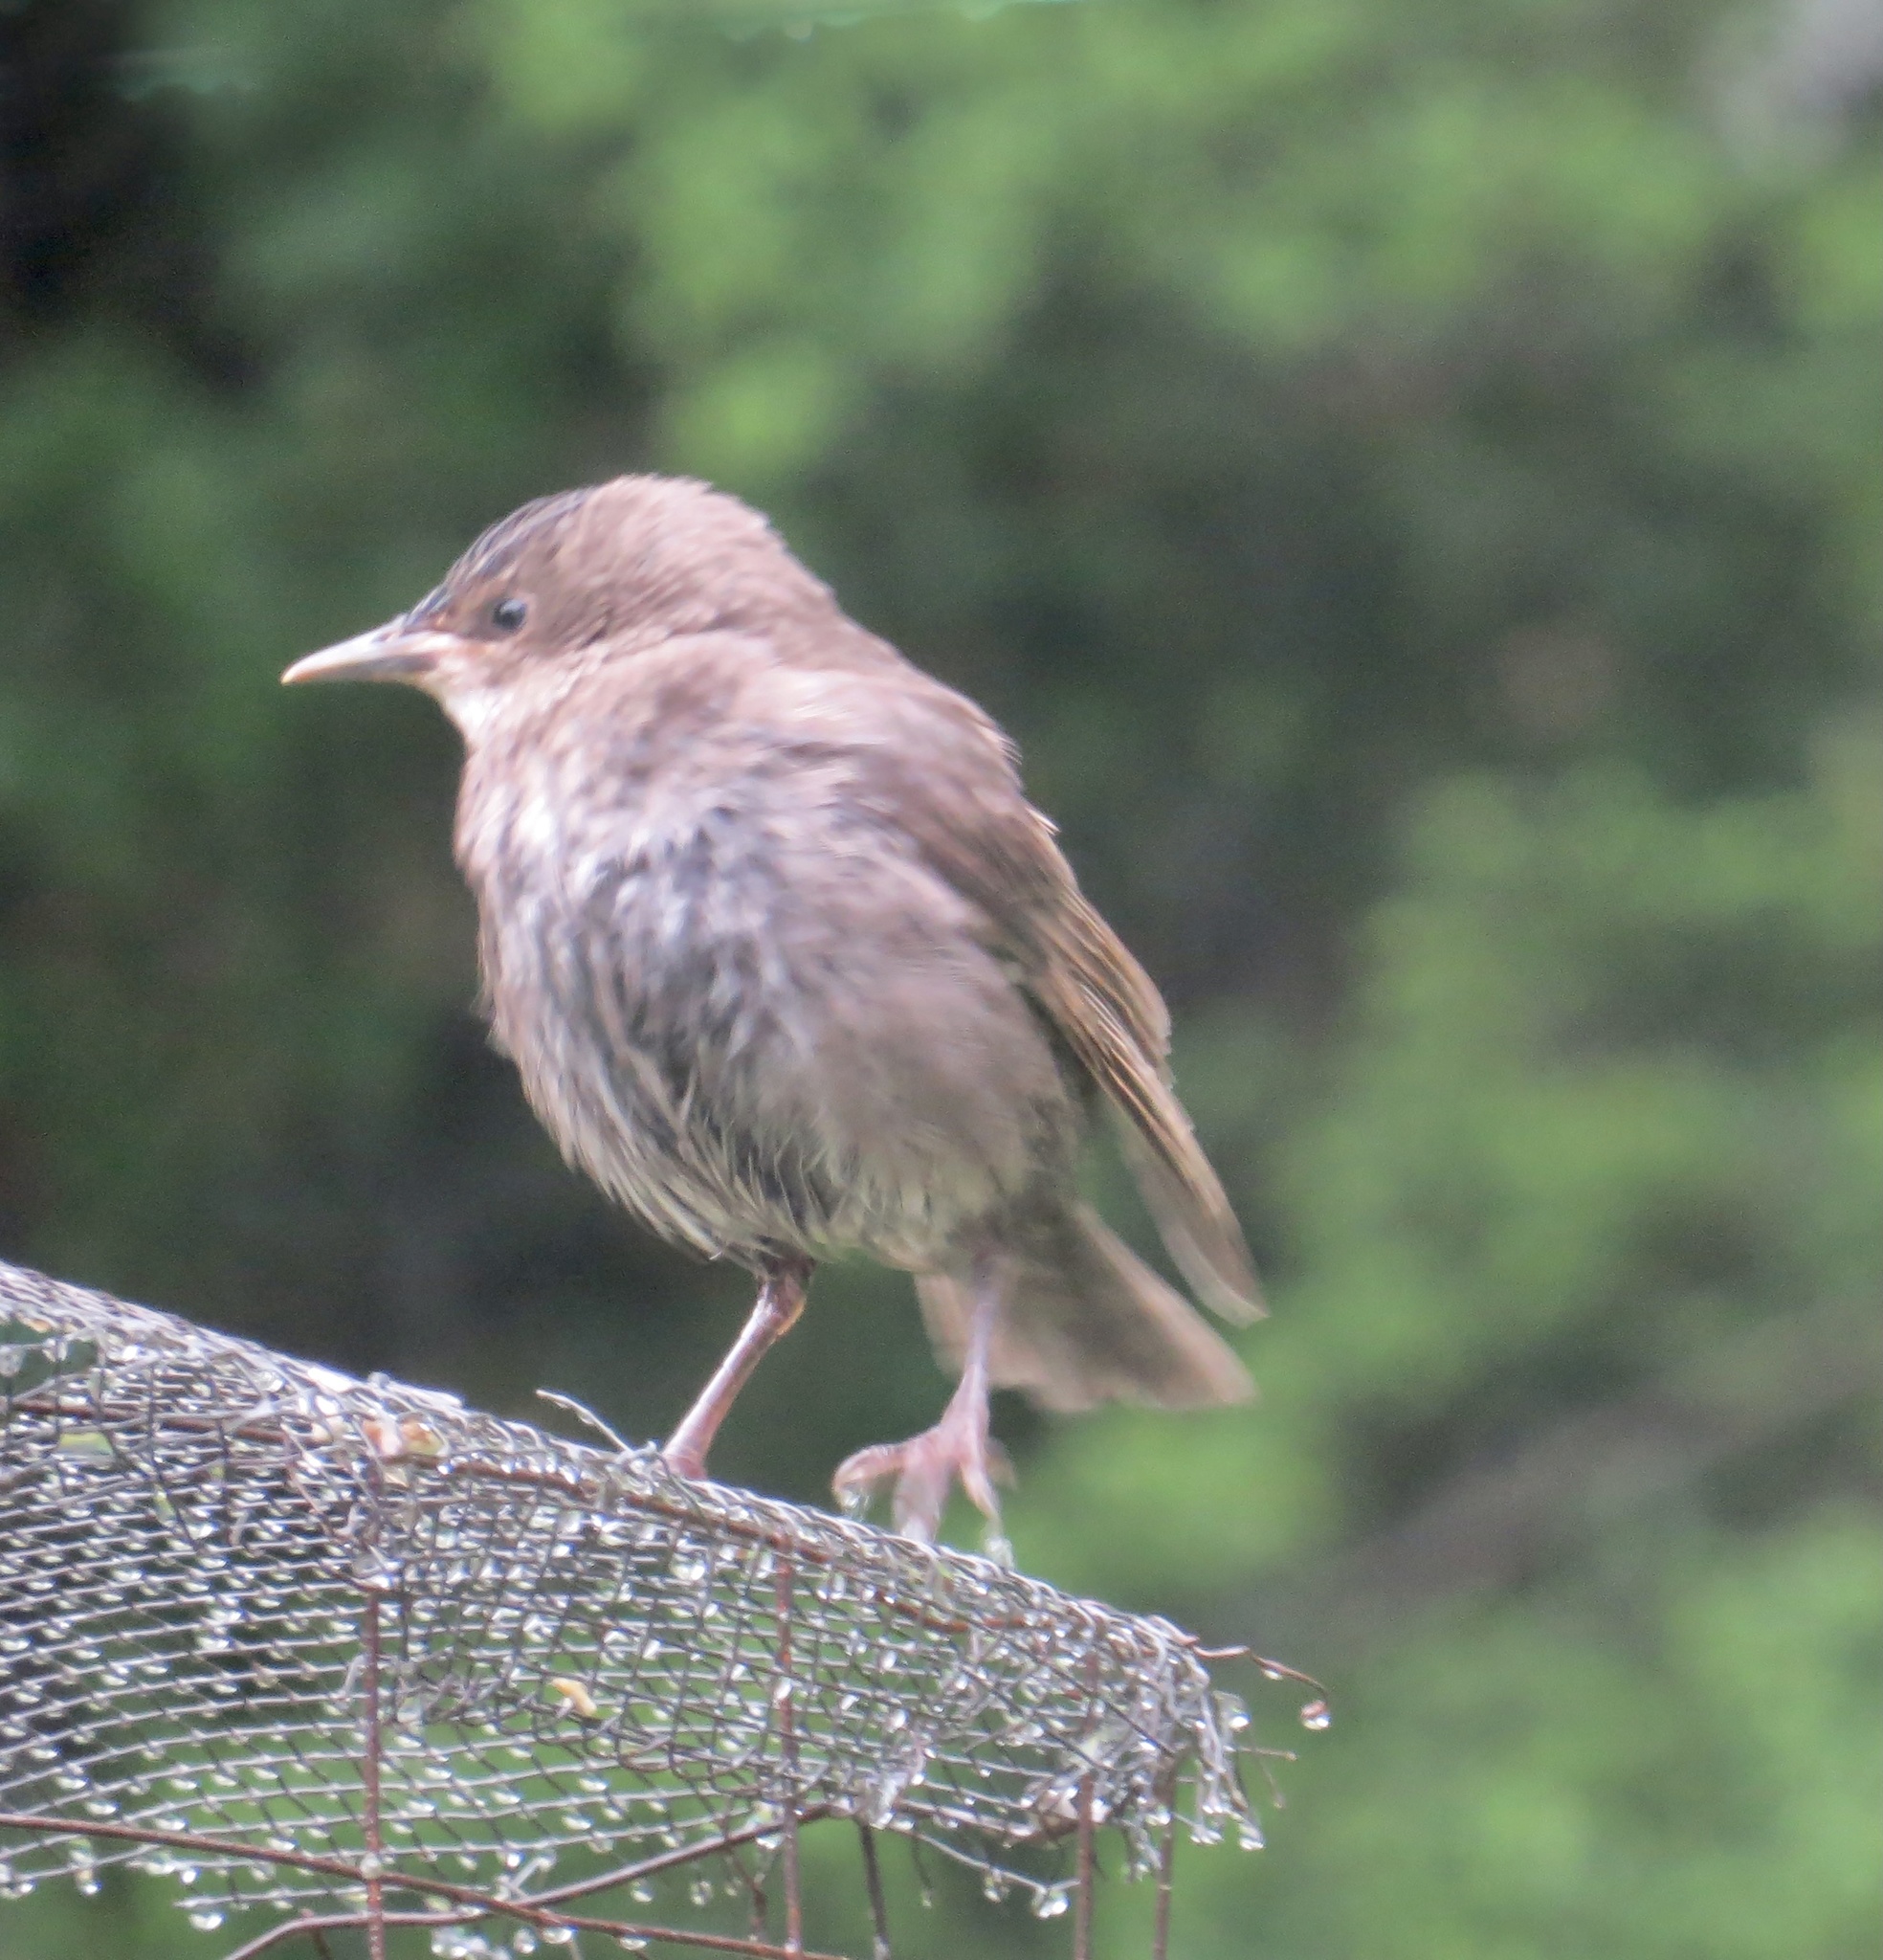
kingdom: Animalia
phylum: Chordata
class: Aves
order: Passeriformes
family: Sturnidae
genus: Sturnus
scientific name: Sturnus vulgaris
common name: Common starling
